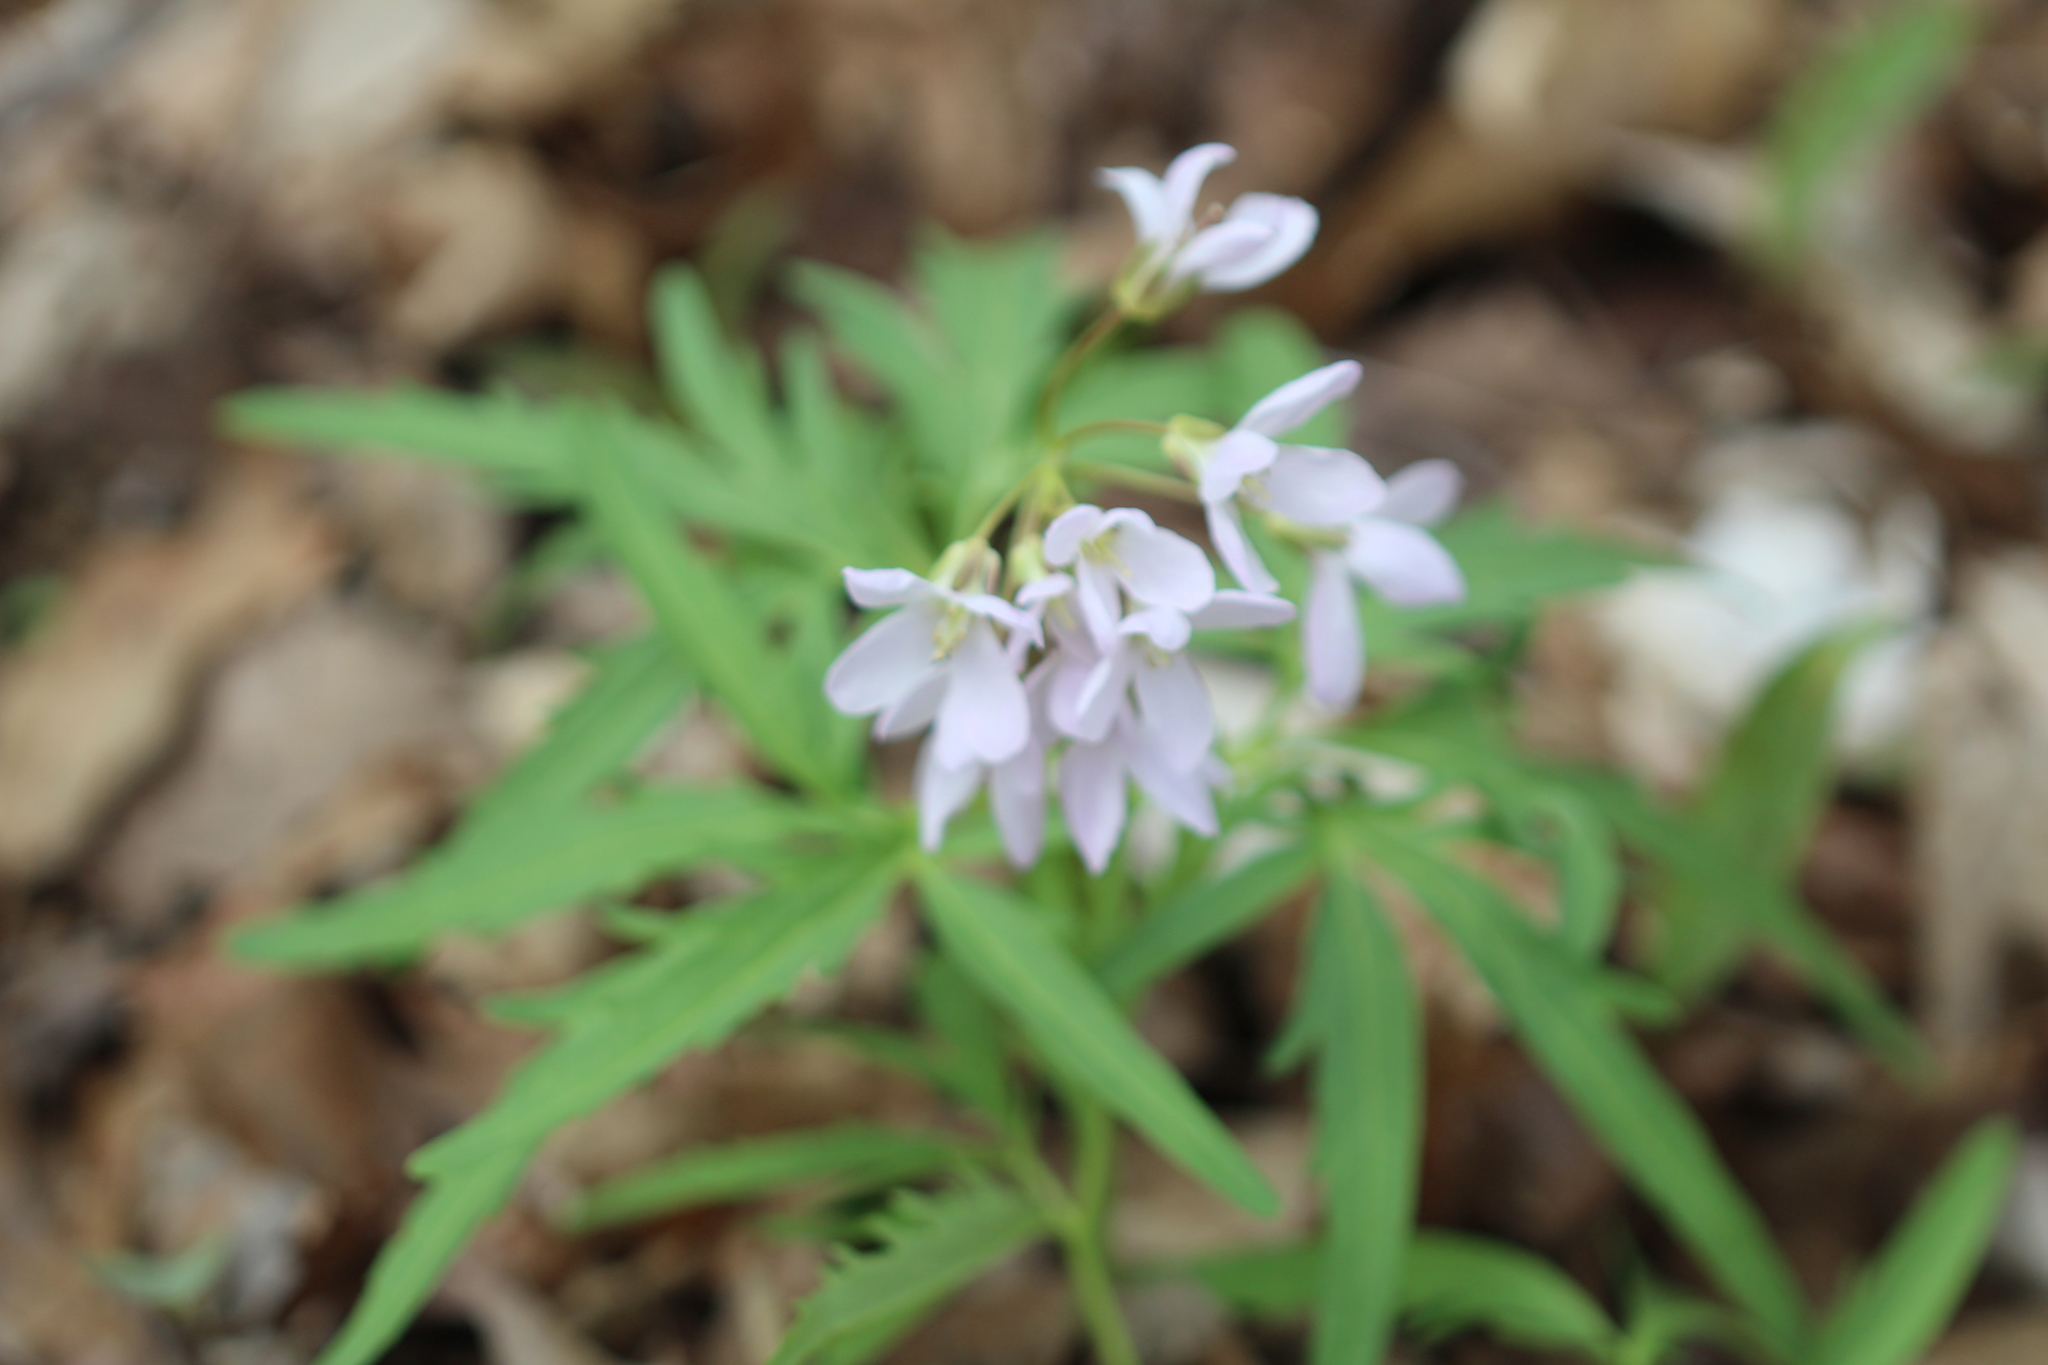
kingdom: Plantae
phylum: Tracheophyta
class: Magnoliopsida
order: Brassicales
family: Brassicaceae
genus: Cardamine
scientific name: Cardamine concatenata
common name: Cut-leaf toothcup
